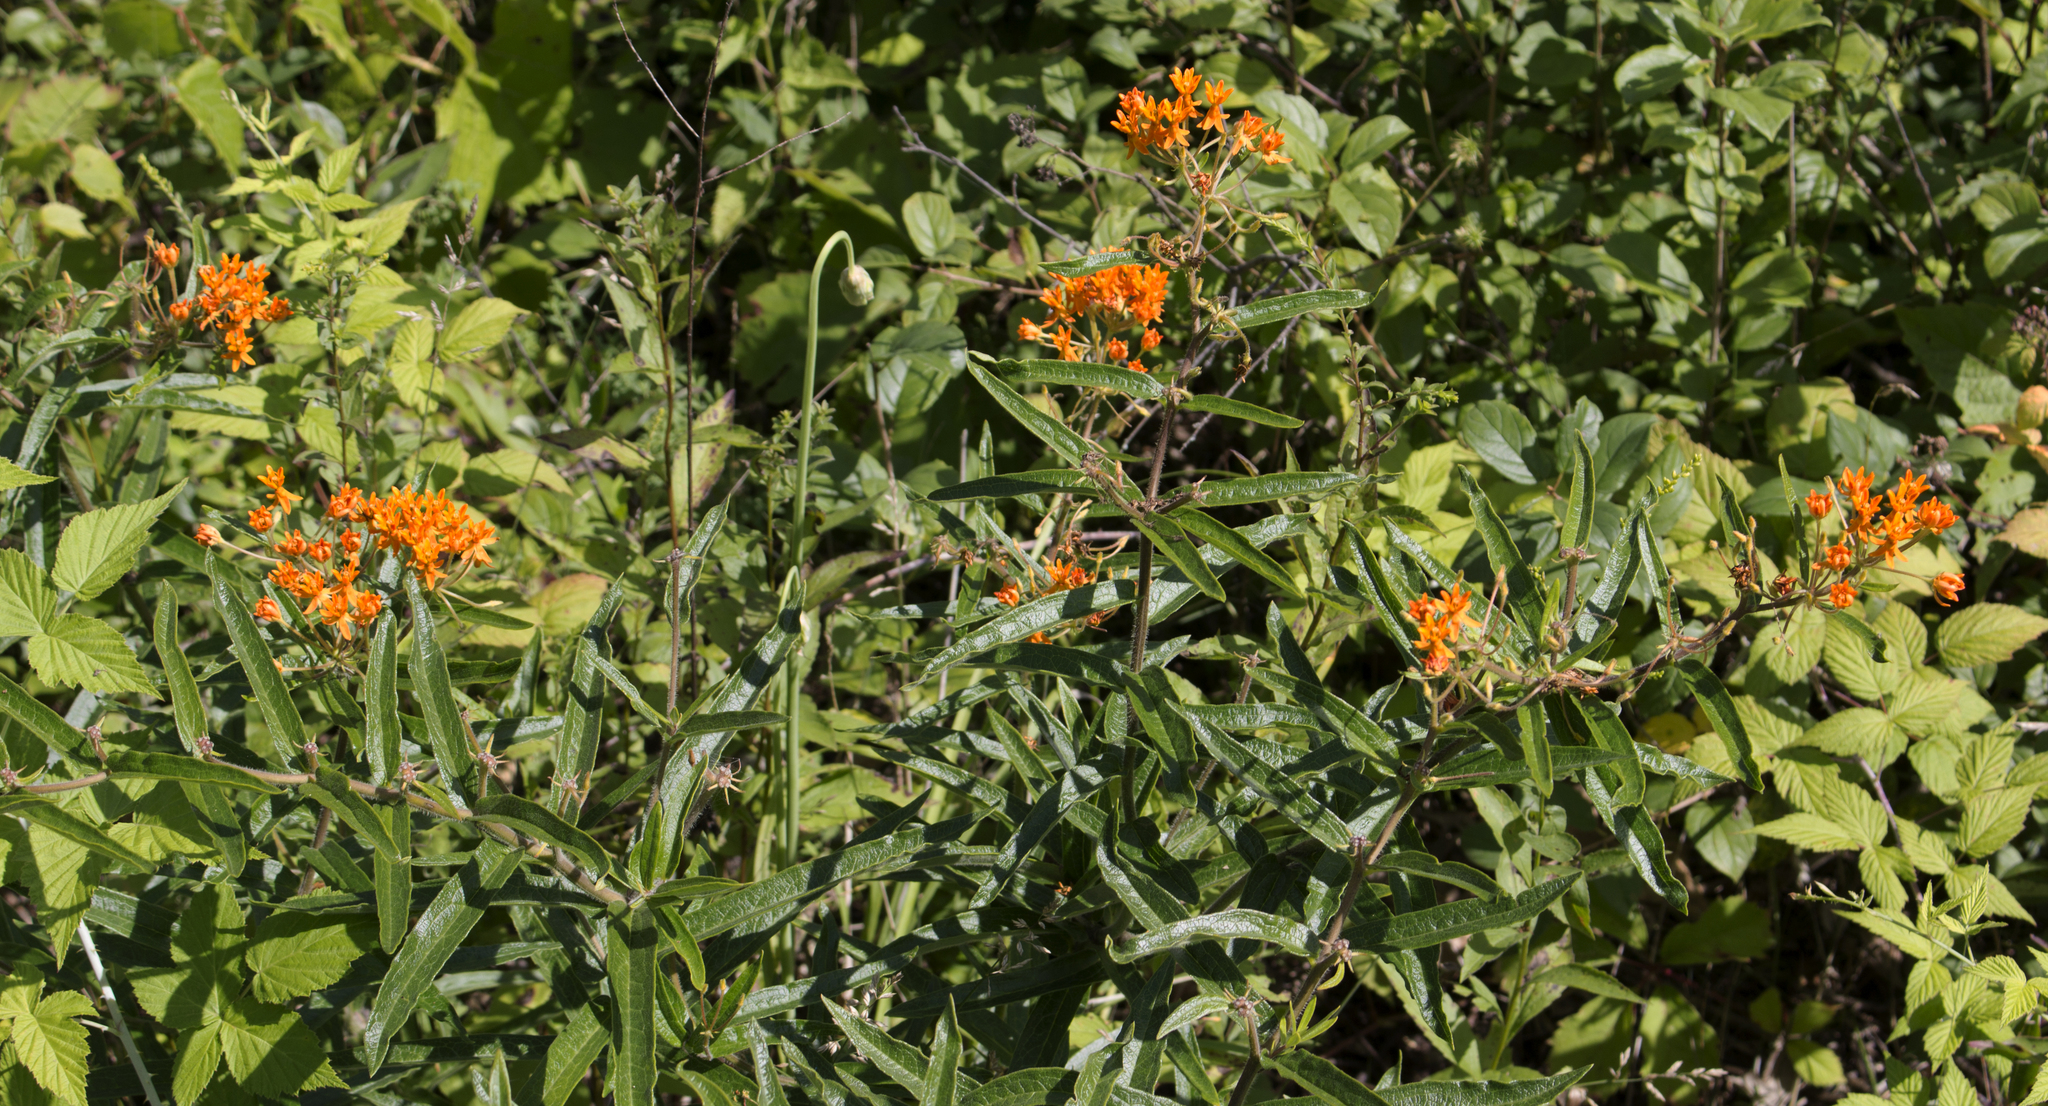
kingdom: Plantae
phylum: Tracheophyta
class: Magnoliopsida
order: Gentianales
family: Apocynaceae
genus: Asclepias
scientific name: Asclepias tuberosa
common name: Butterfly milkweed
